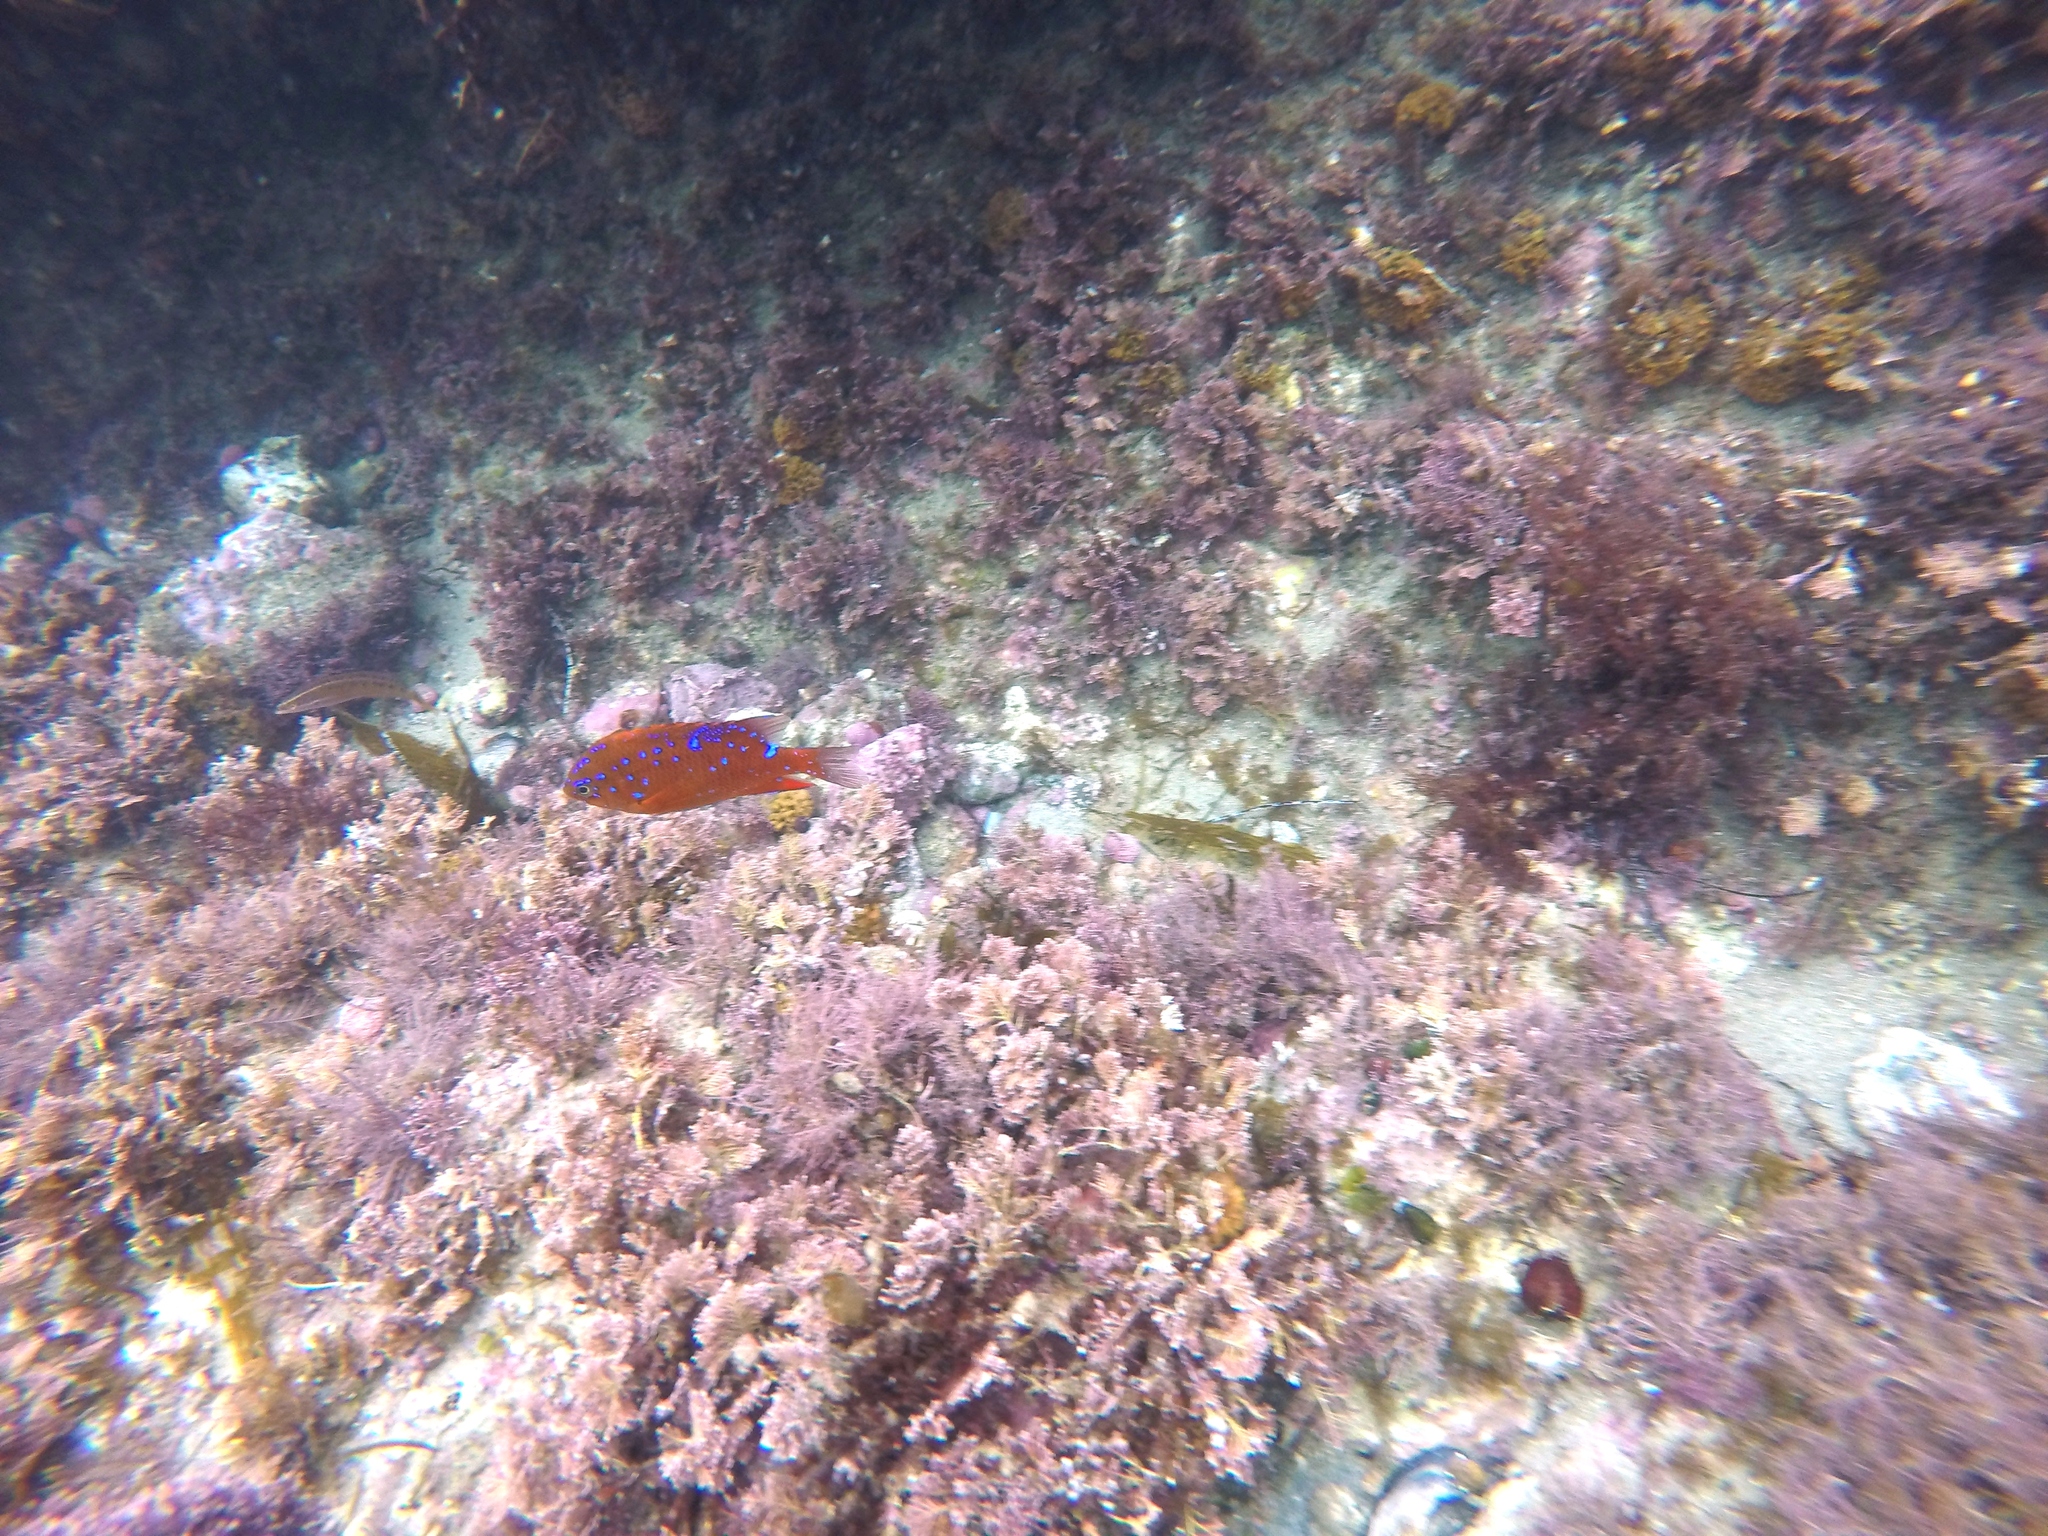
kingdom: Animalia
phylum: Chordata
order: Perciformes
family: Pomacentridae
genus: Hypsypops
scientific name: Hypsypops rubicundus
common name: Garibaldi
